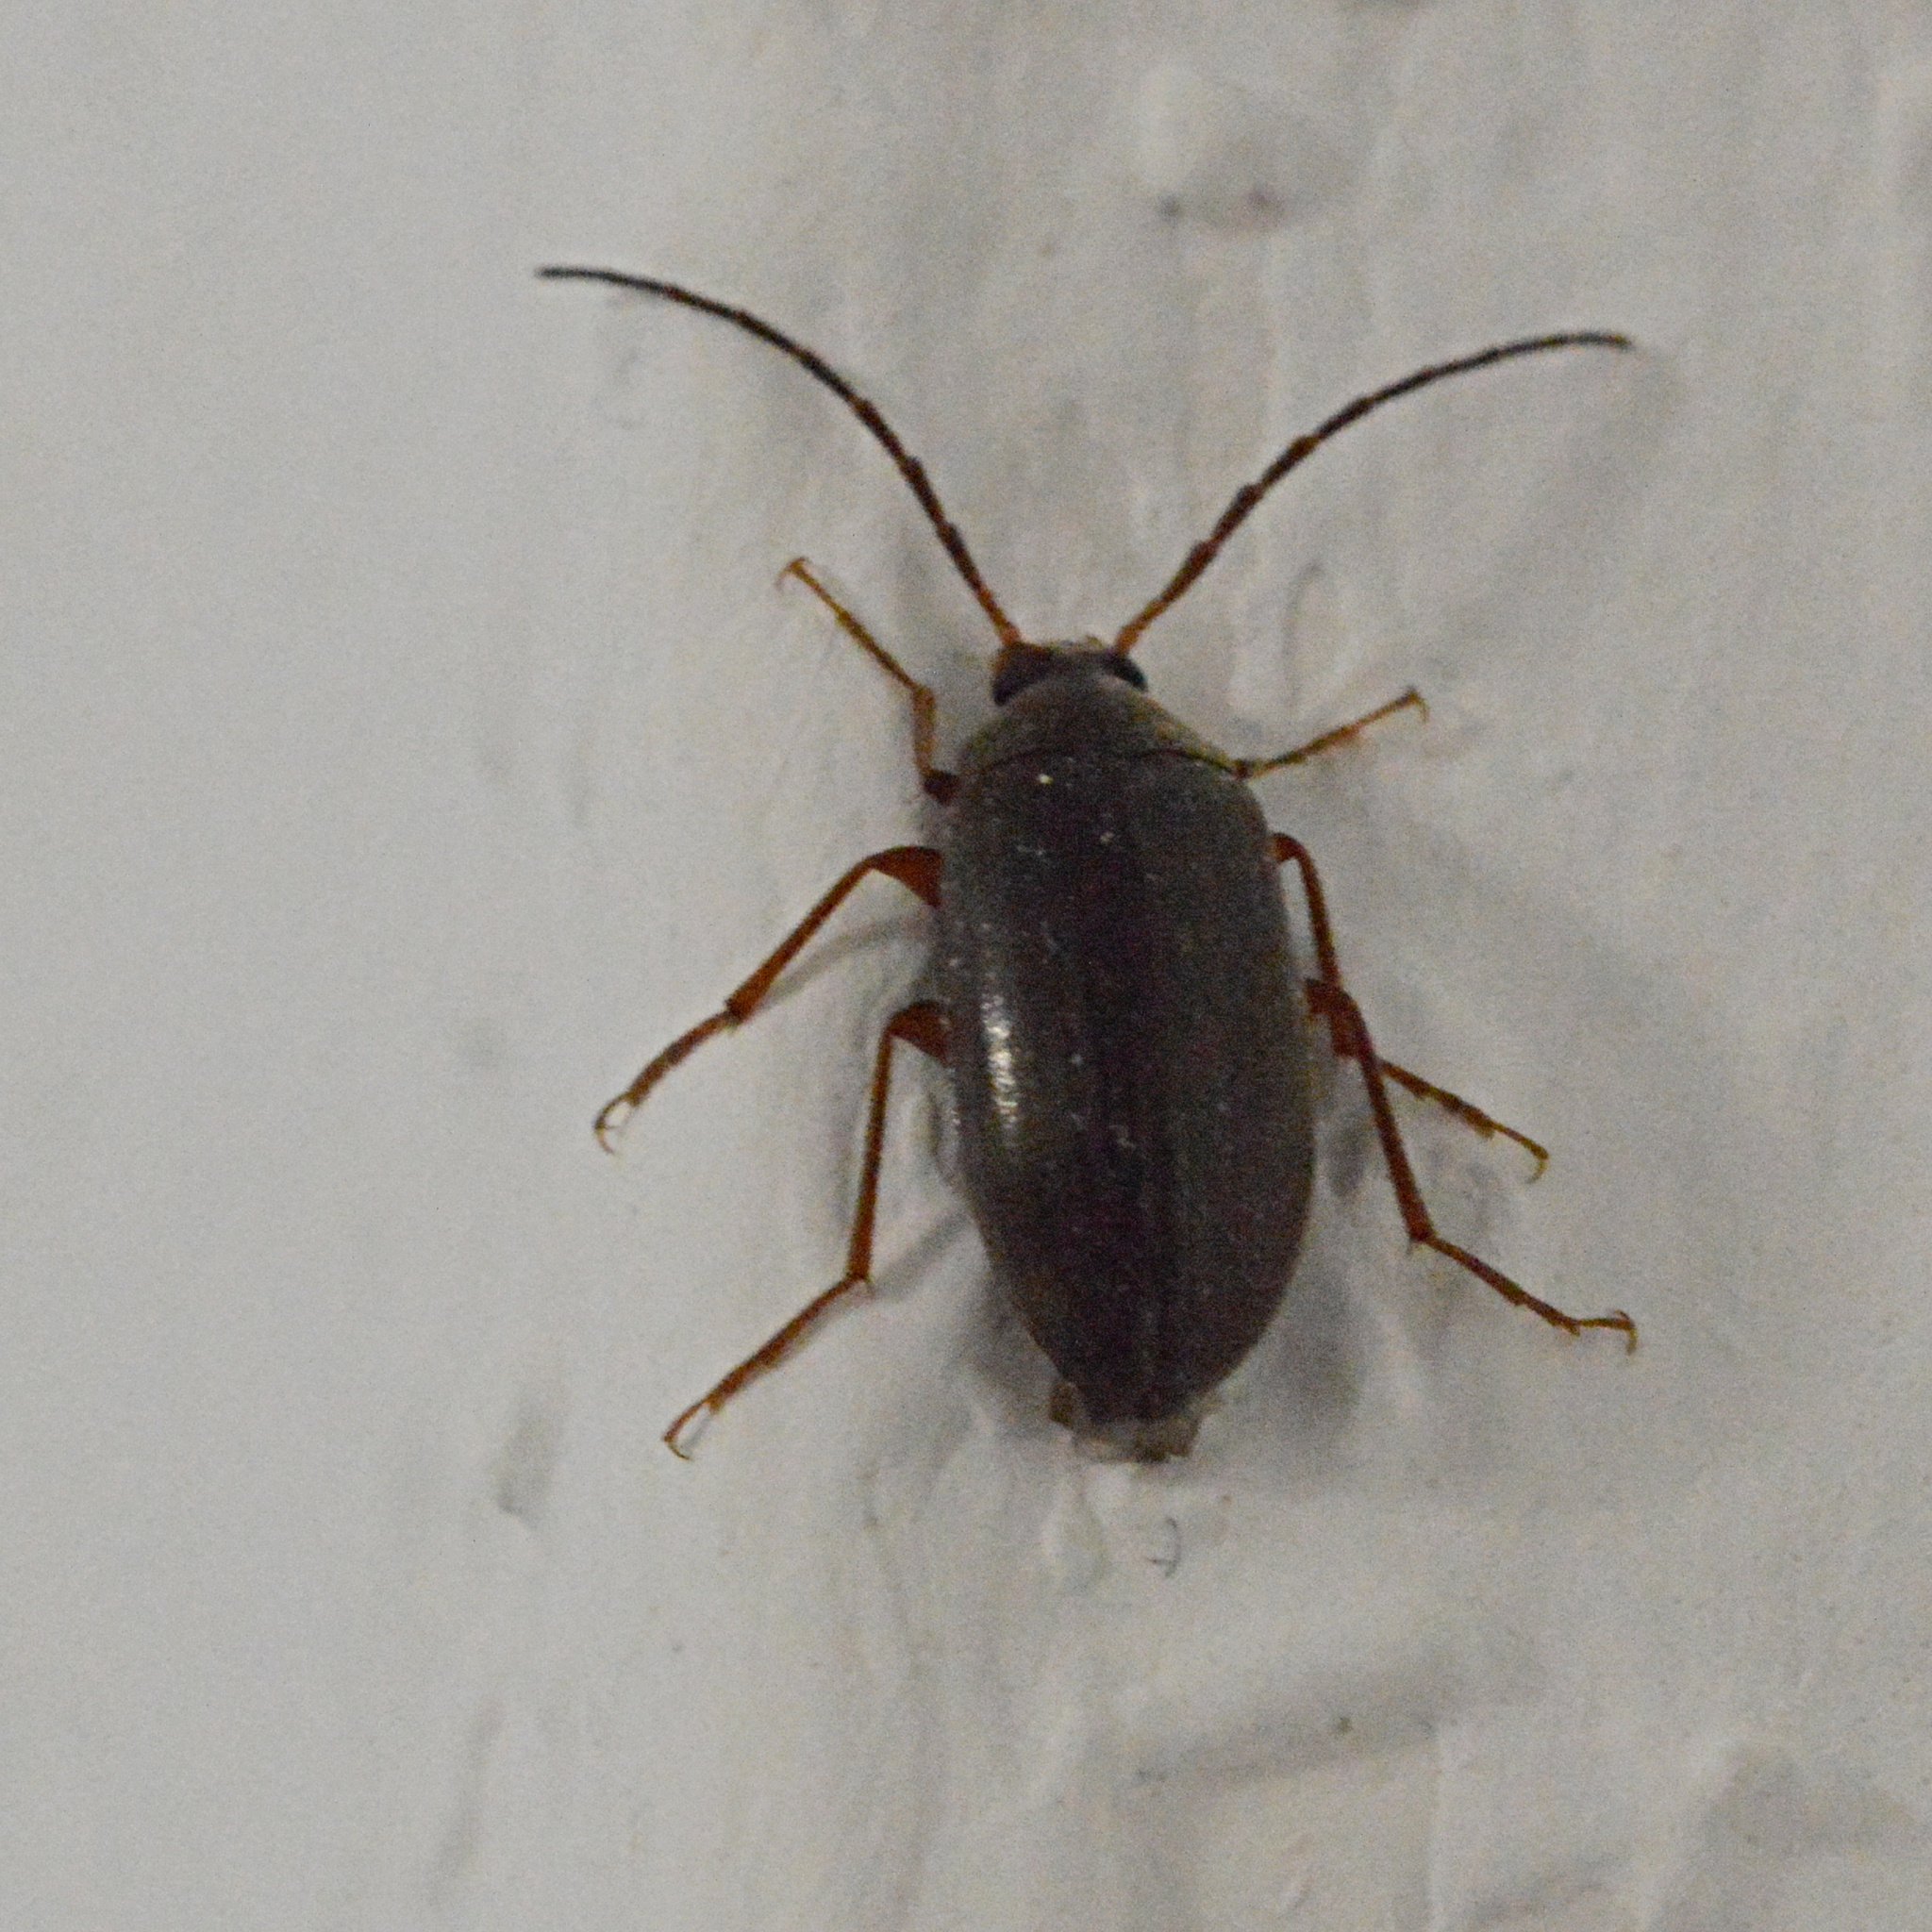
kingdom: Animalia
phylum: Arthropoda
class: Insecta
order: Coleoptera
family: Tenebrionidae
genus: Allecula
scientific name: Allecula morio
